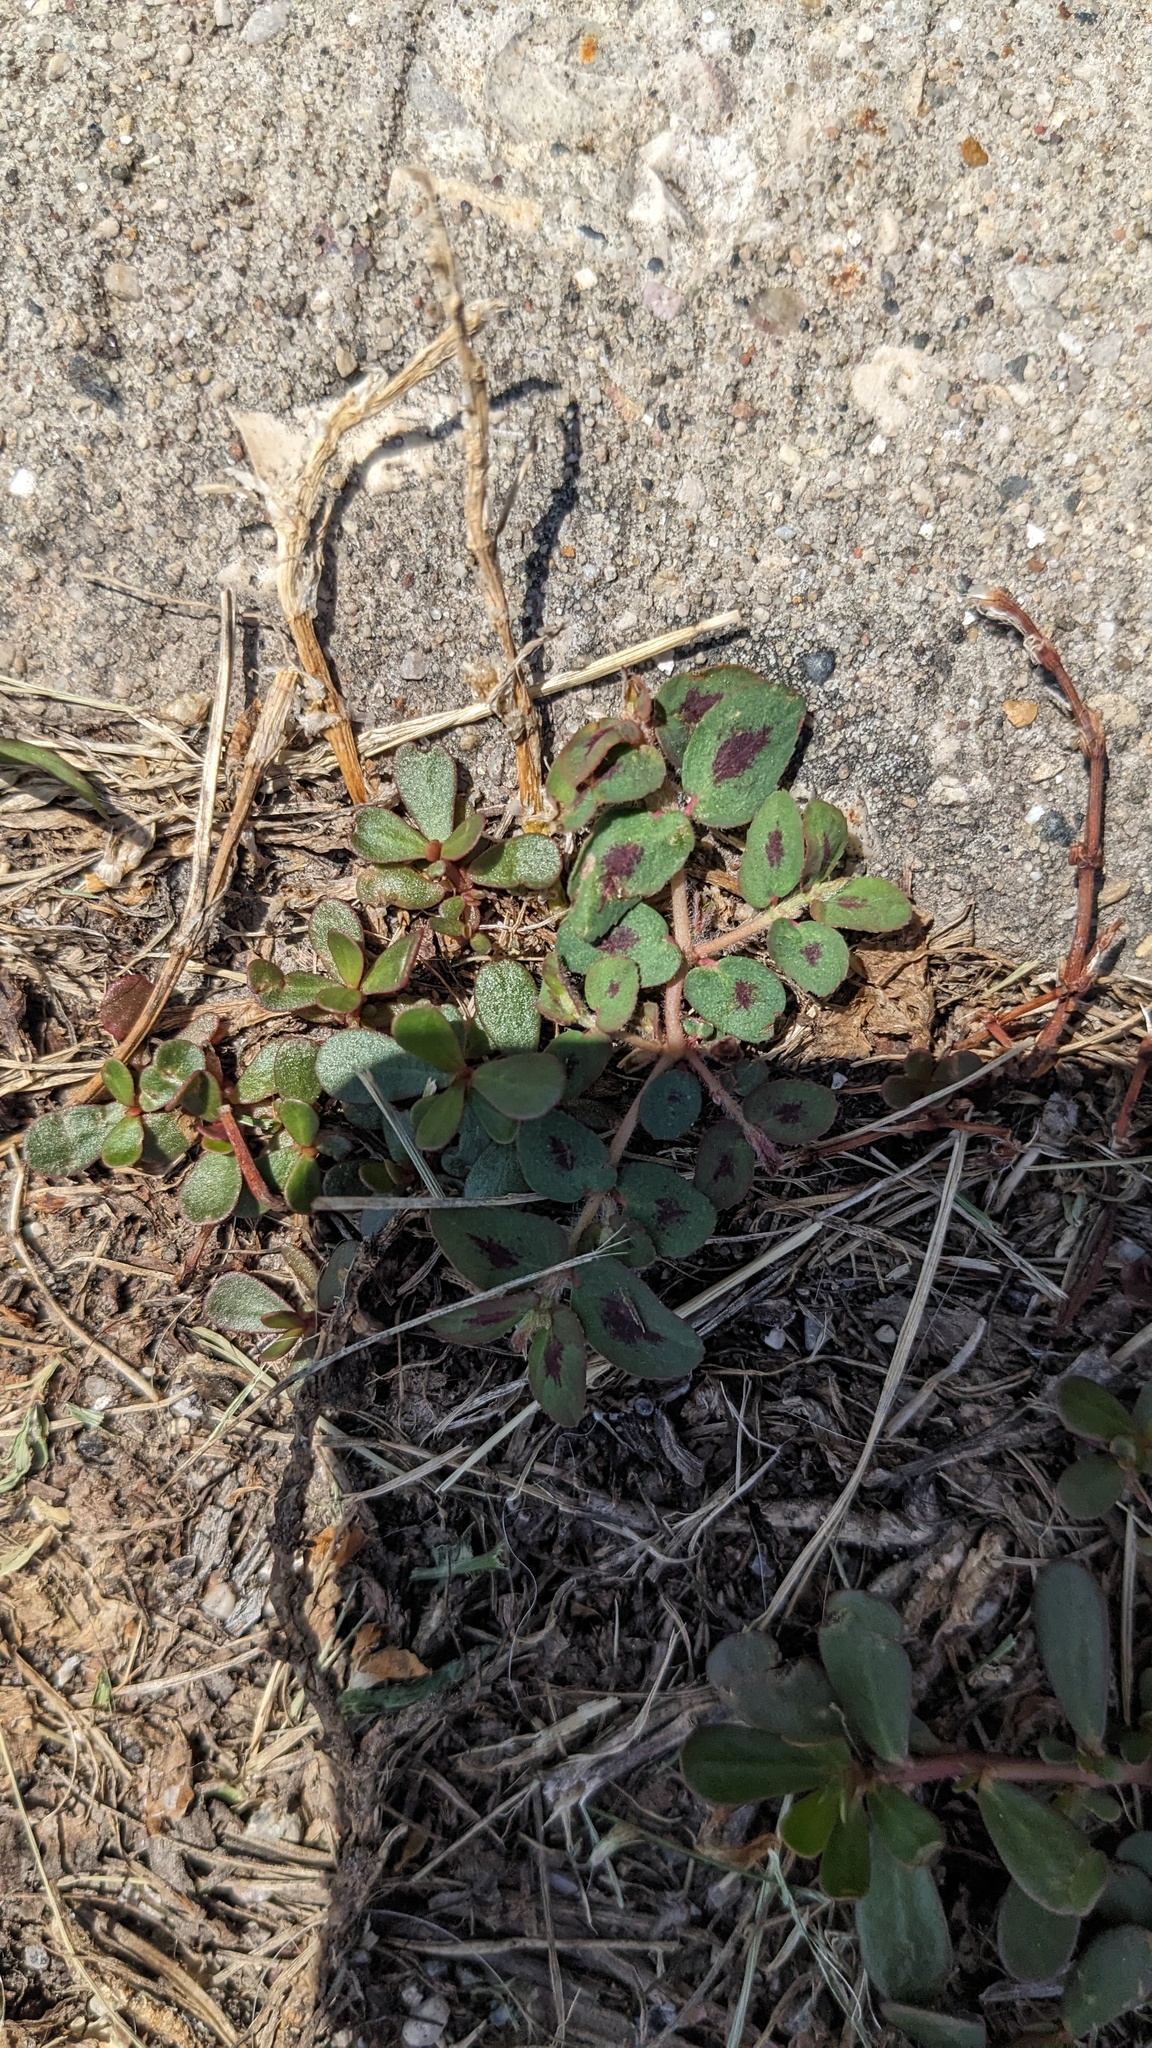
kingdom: Plantae
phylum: Tracheophyta
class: Magnoliopsida
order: Malpighiales
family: Euphorbiaceae
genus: Euphorbia
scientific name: Euphorbia maculata
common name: Spotted spurge
